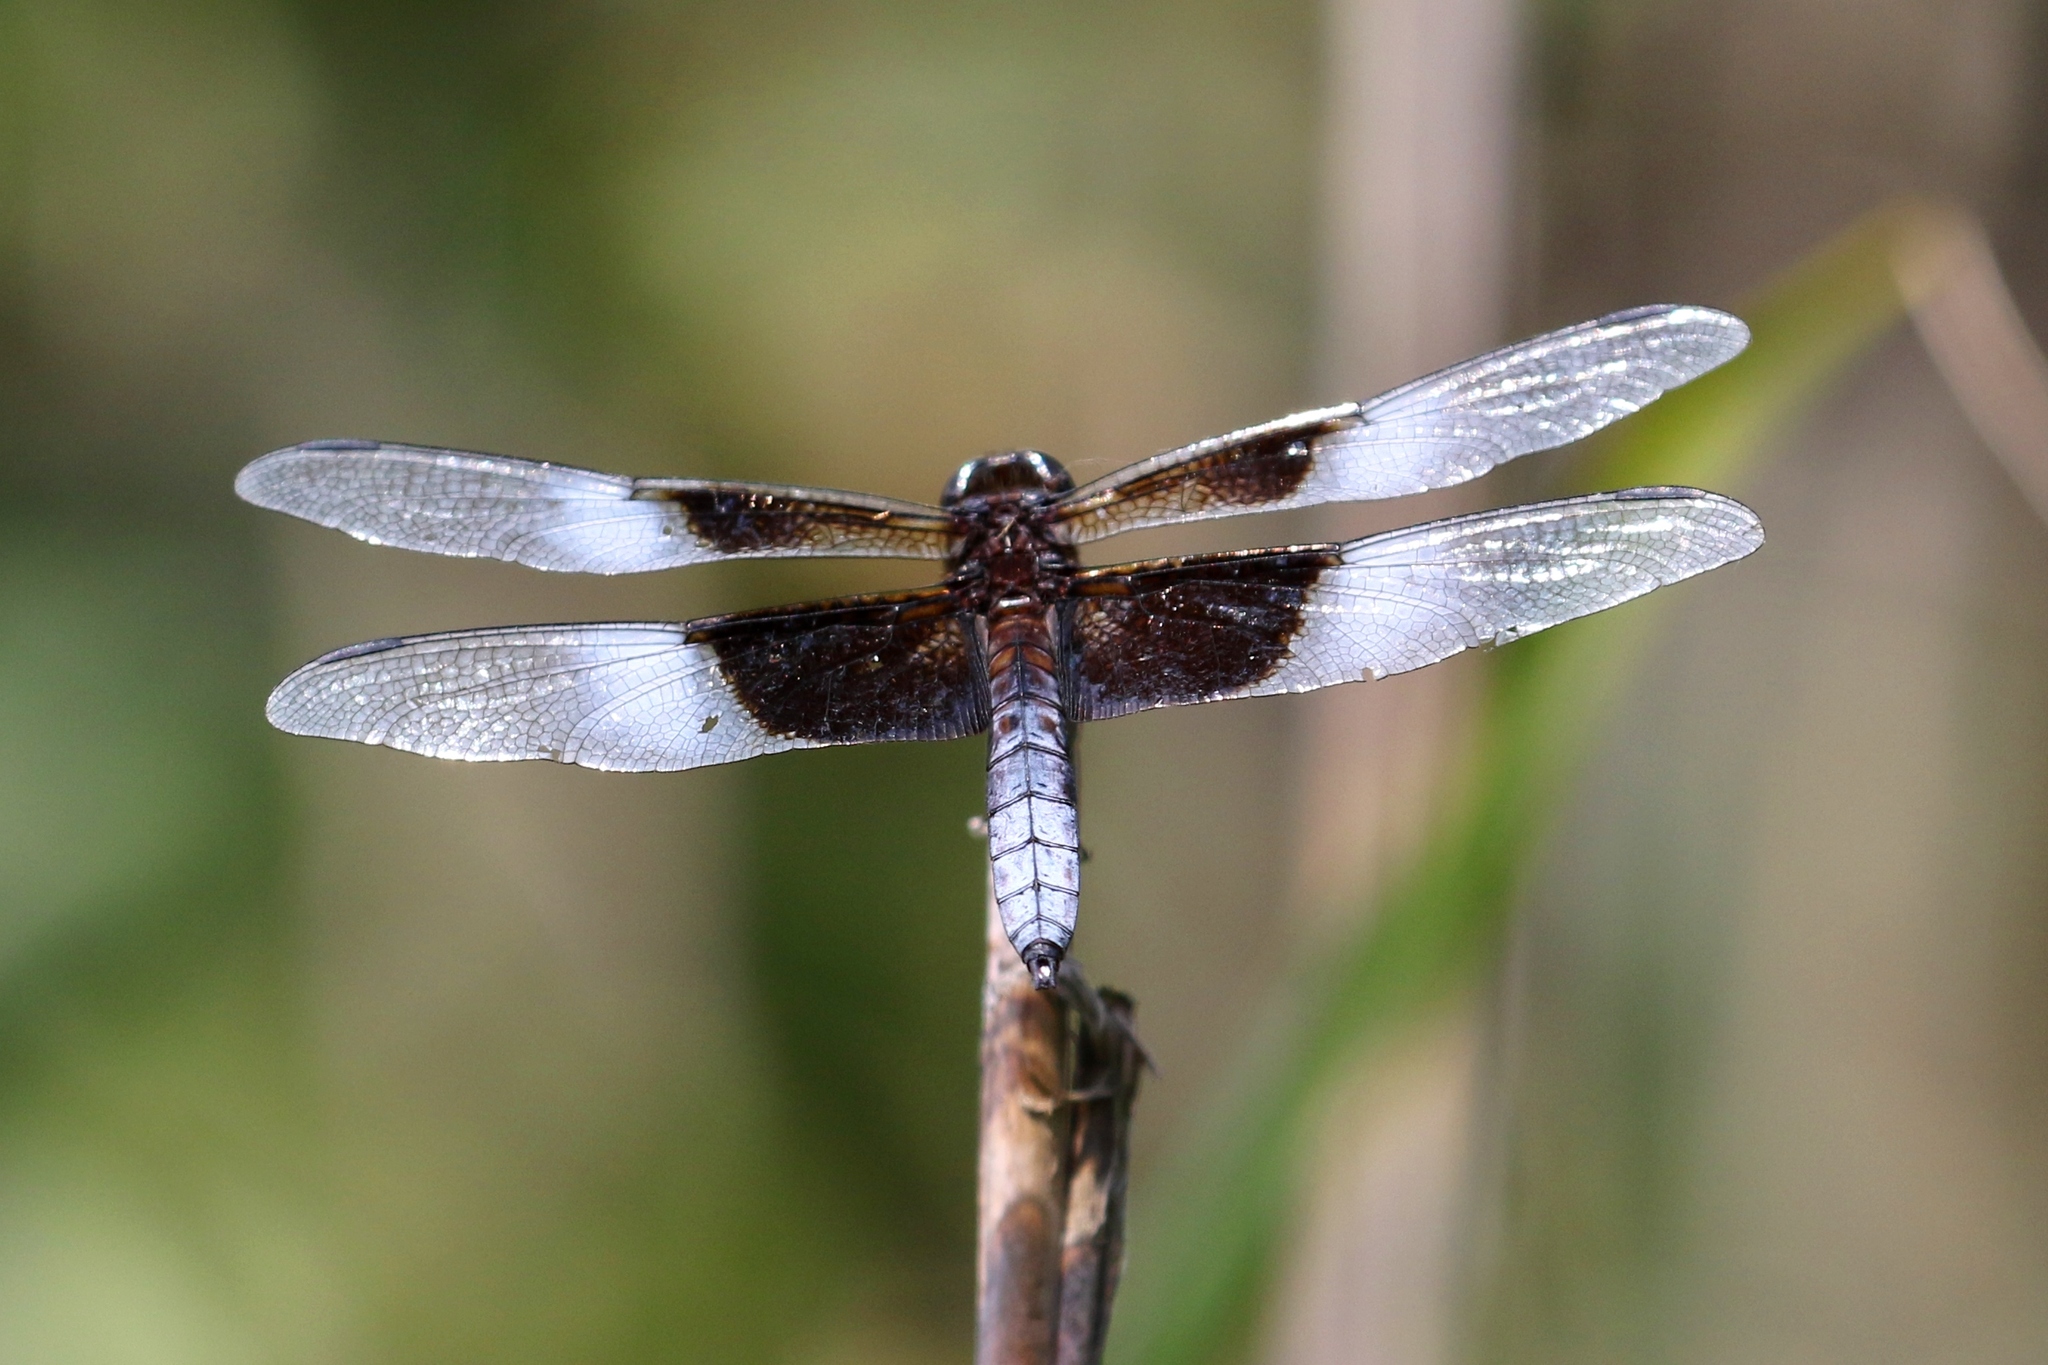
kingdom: Animalia
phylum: Arthropoda
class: Insecta
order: Odonata
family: Libellulidae
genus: Libellula
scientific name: Libellula luctuosa
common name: Widow skimmer
